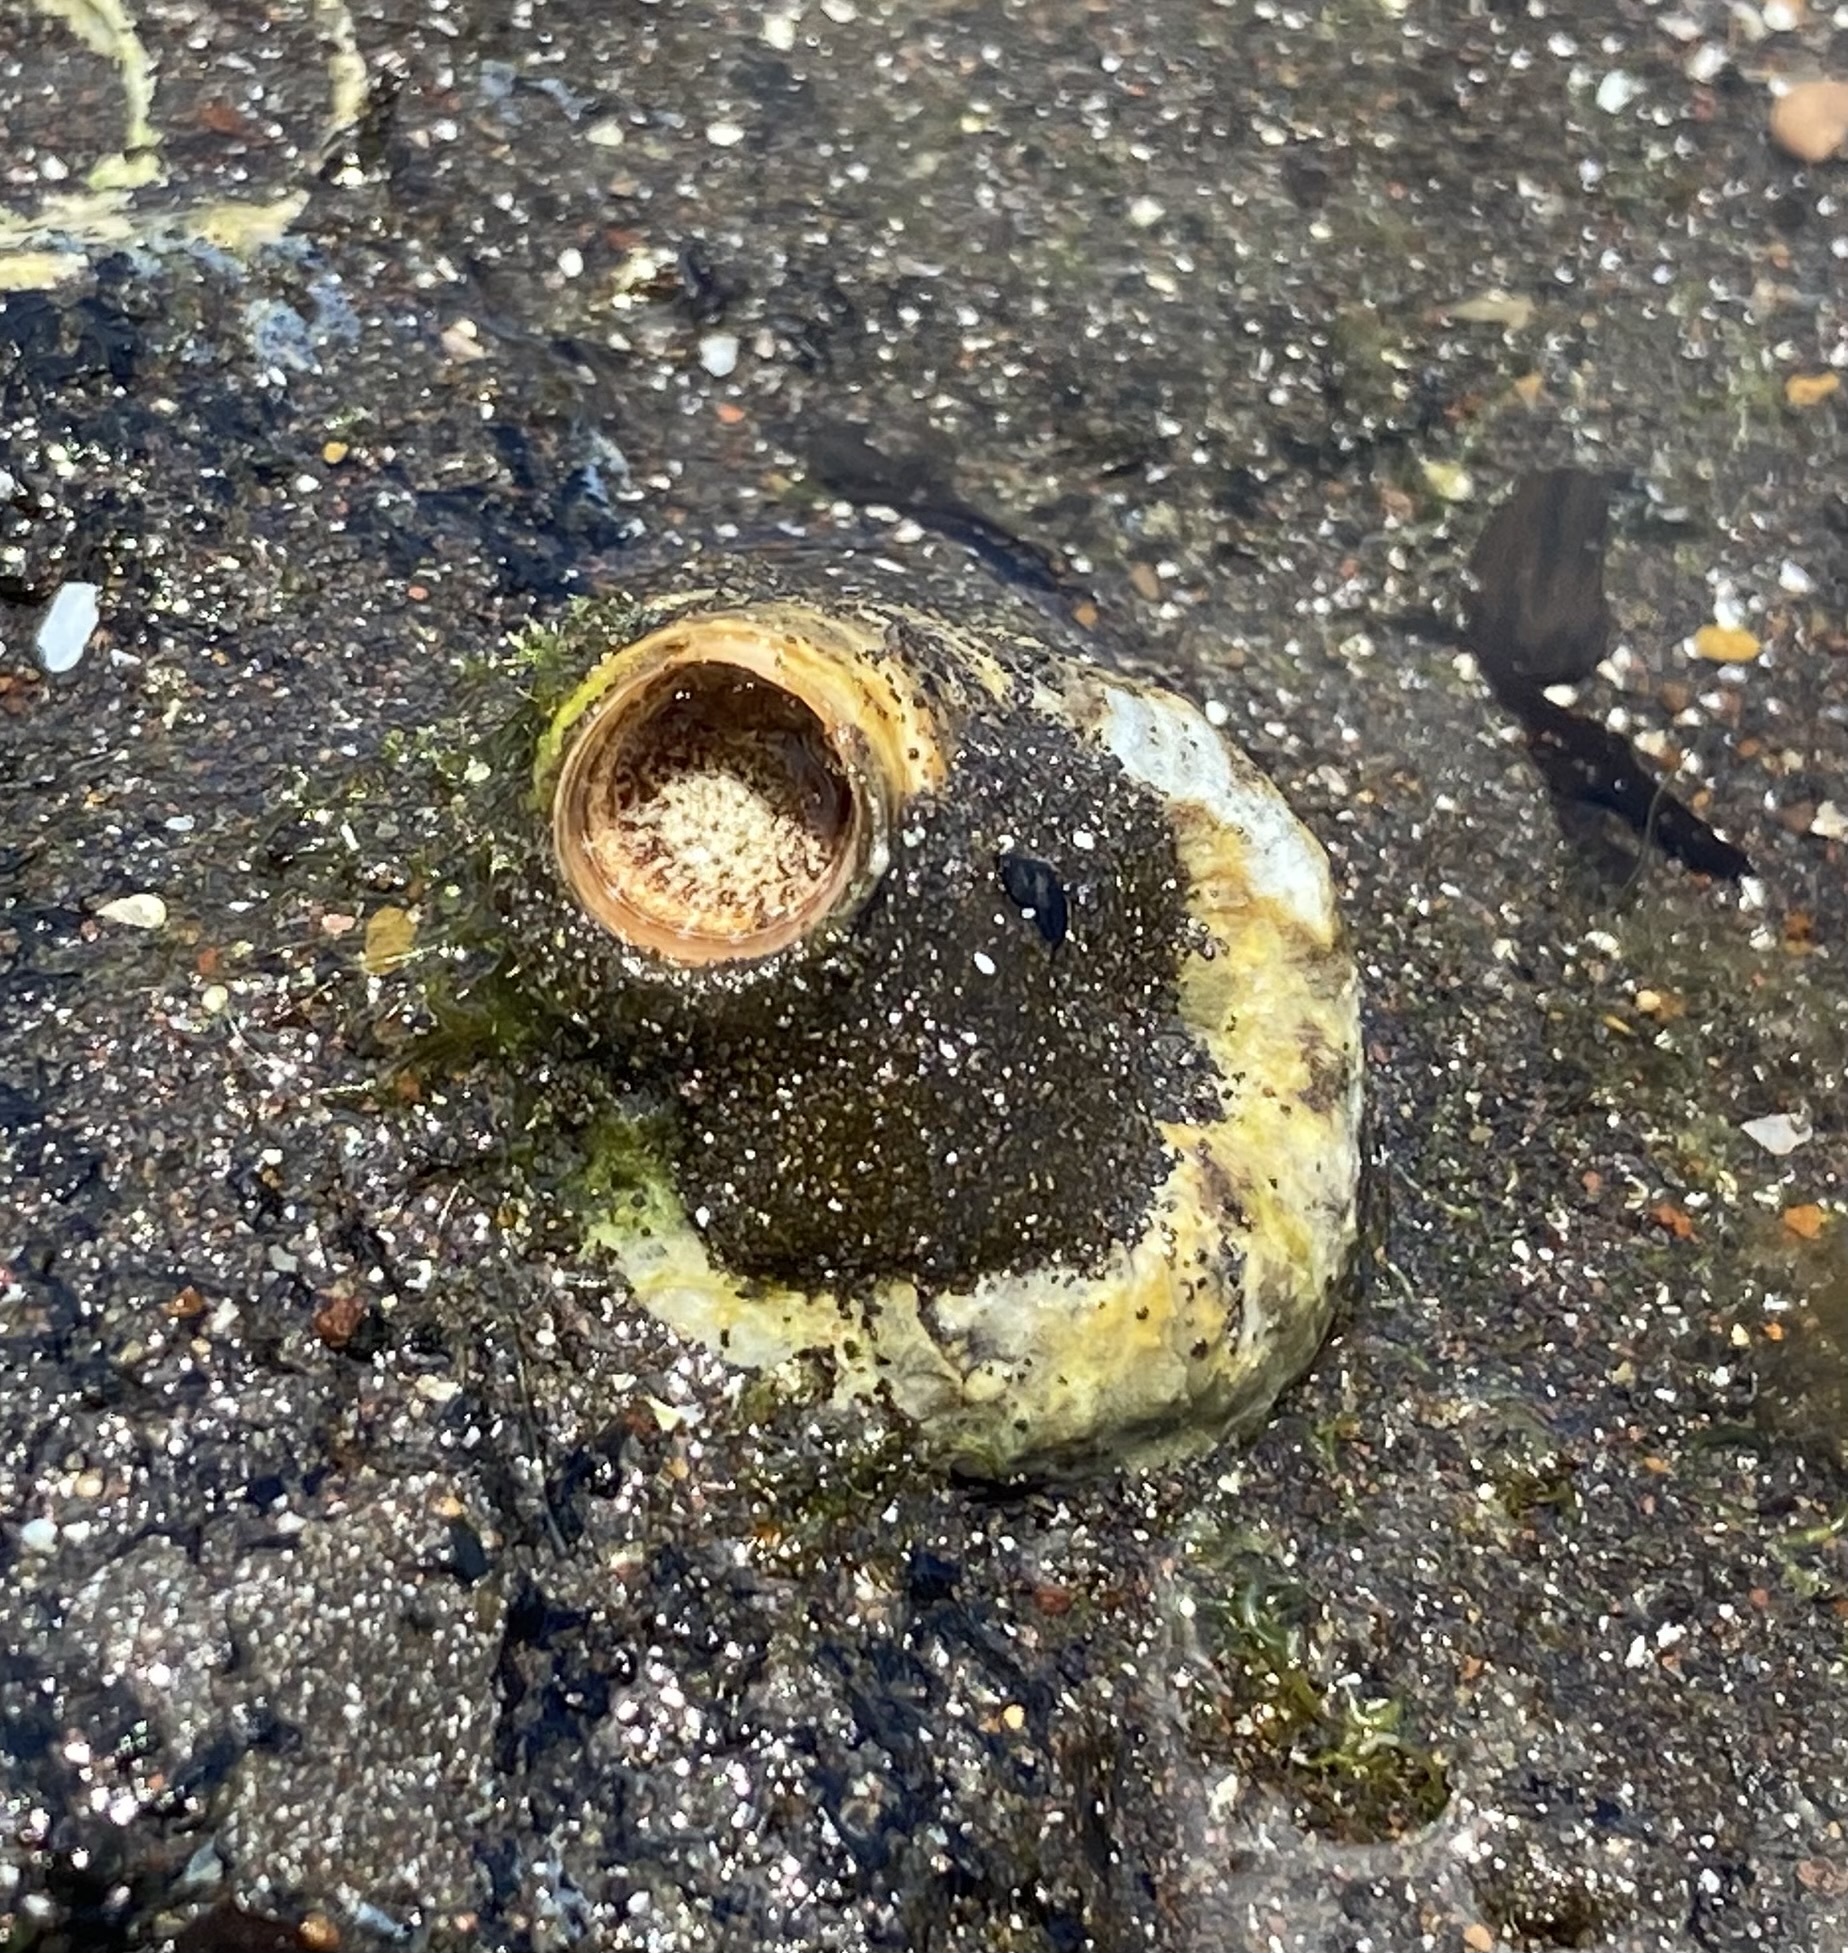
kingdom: Animalia
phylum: Mollusca
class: Gastropoda
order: Littorinimorpha
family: Vermetidae
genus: Thylacodes
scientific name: Thylacodes variabilis
